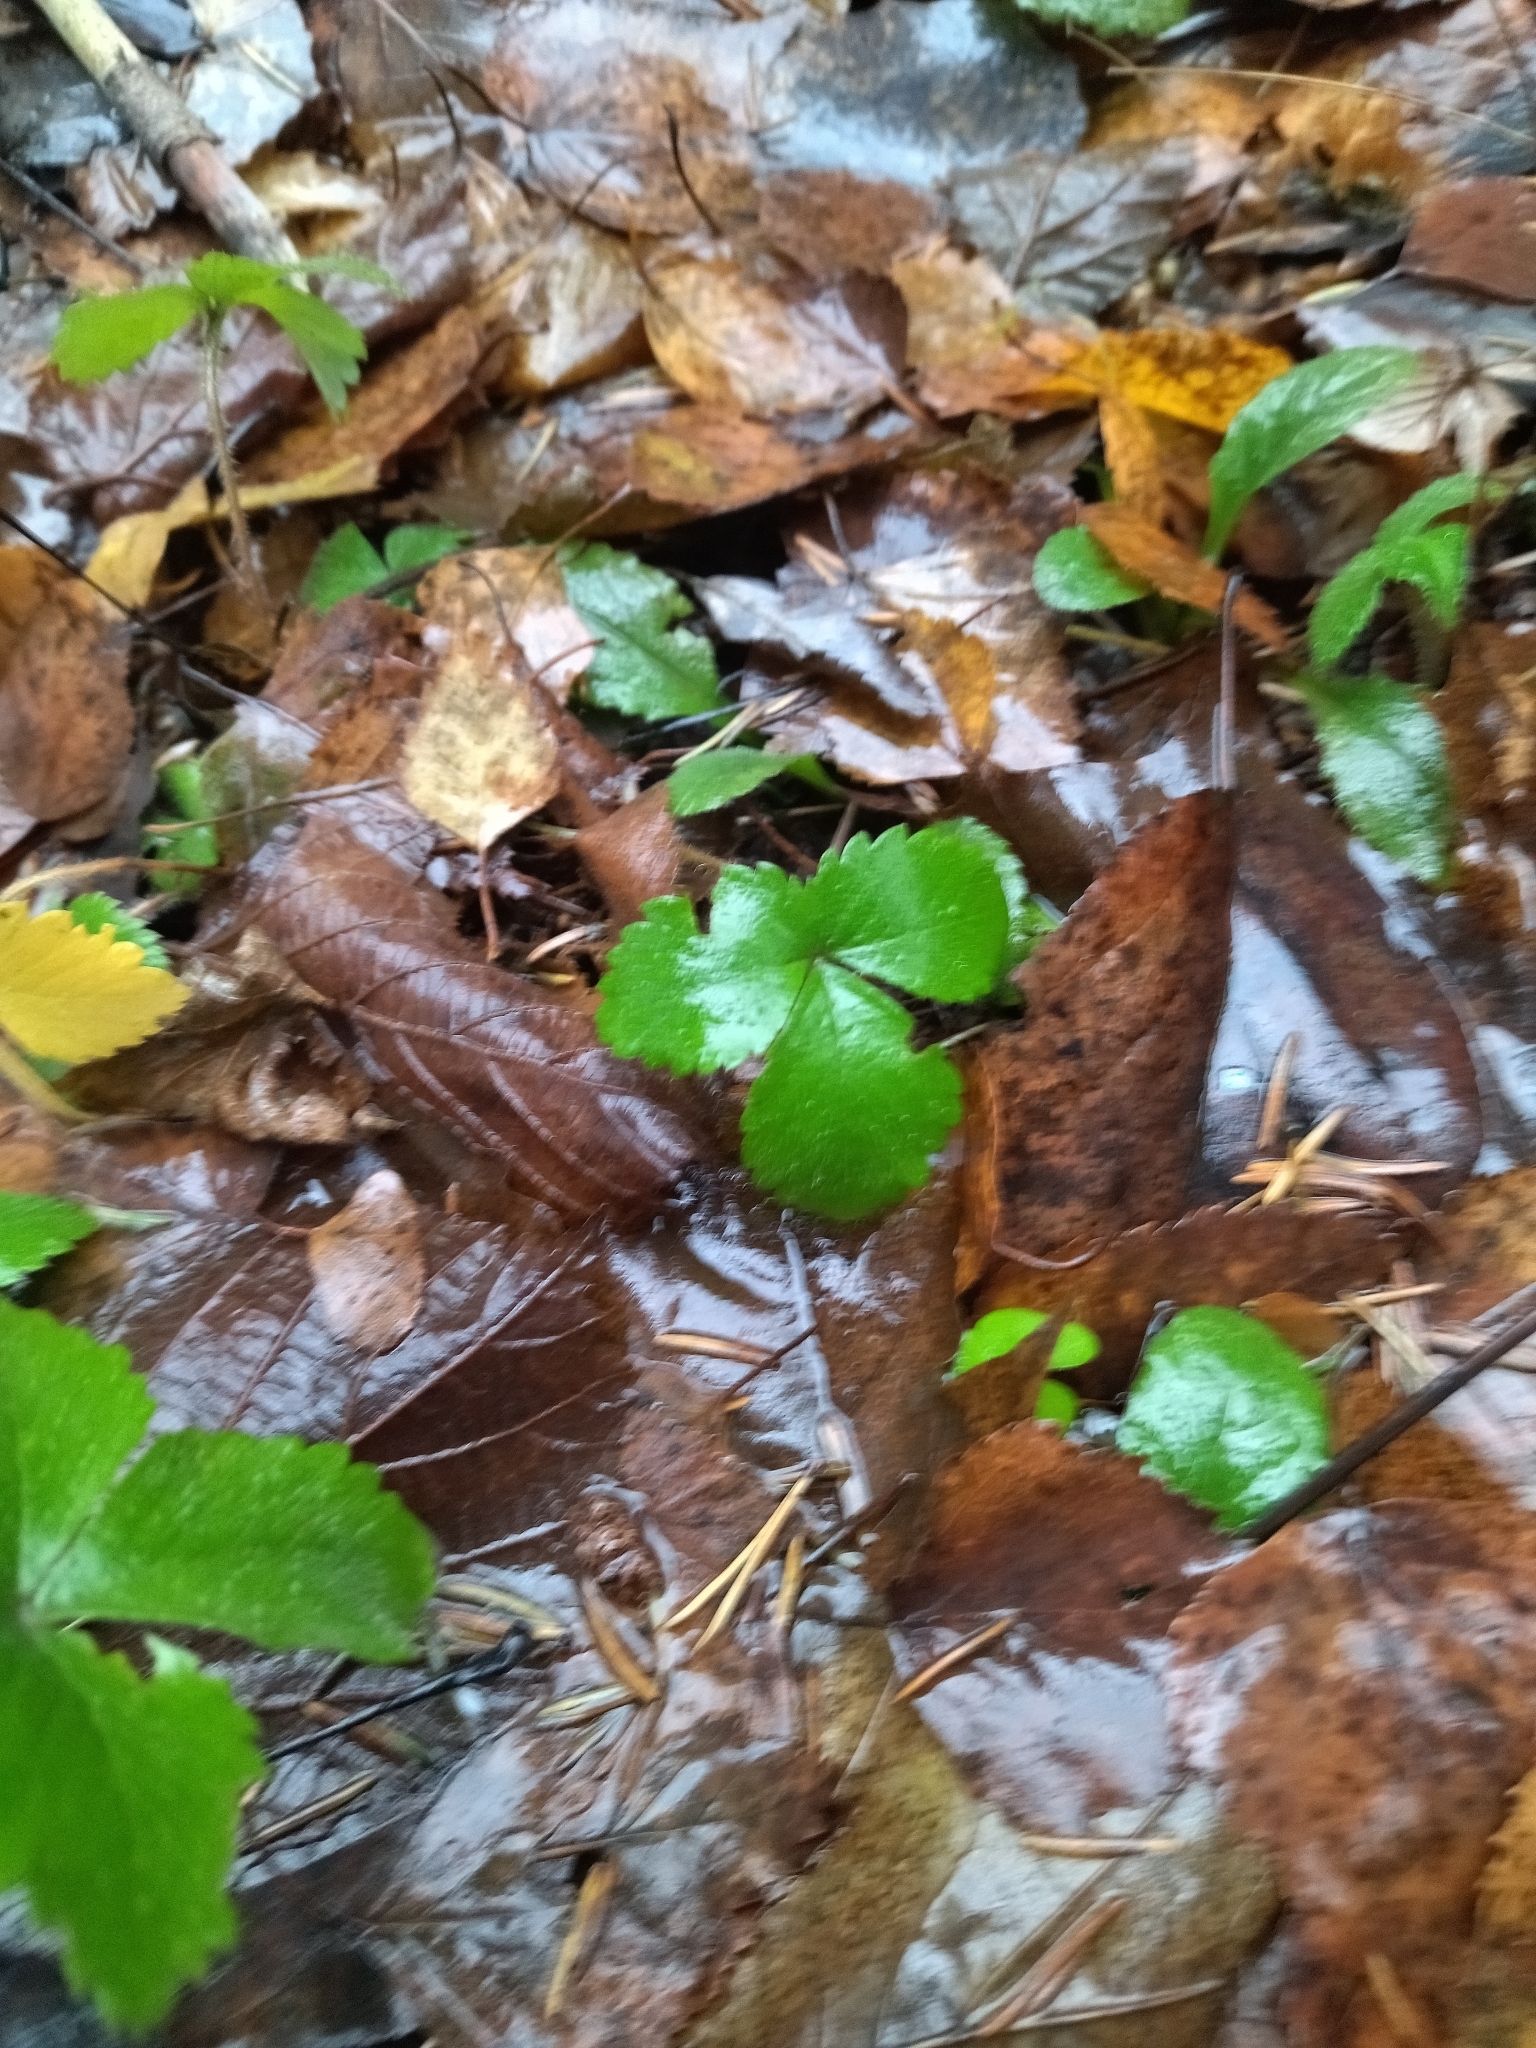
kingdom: Plantae
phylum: Tracheophyta
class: Magnoliopsida
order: Rosales
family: Rosaceae
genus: Fragaria
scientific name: Fragaria vesca
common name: Wild strawberry
